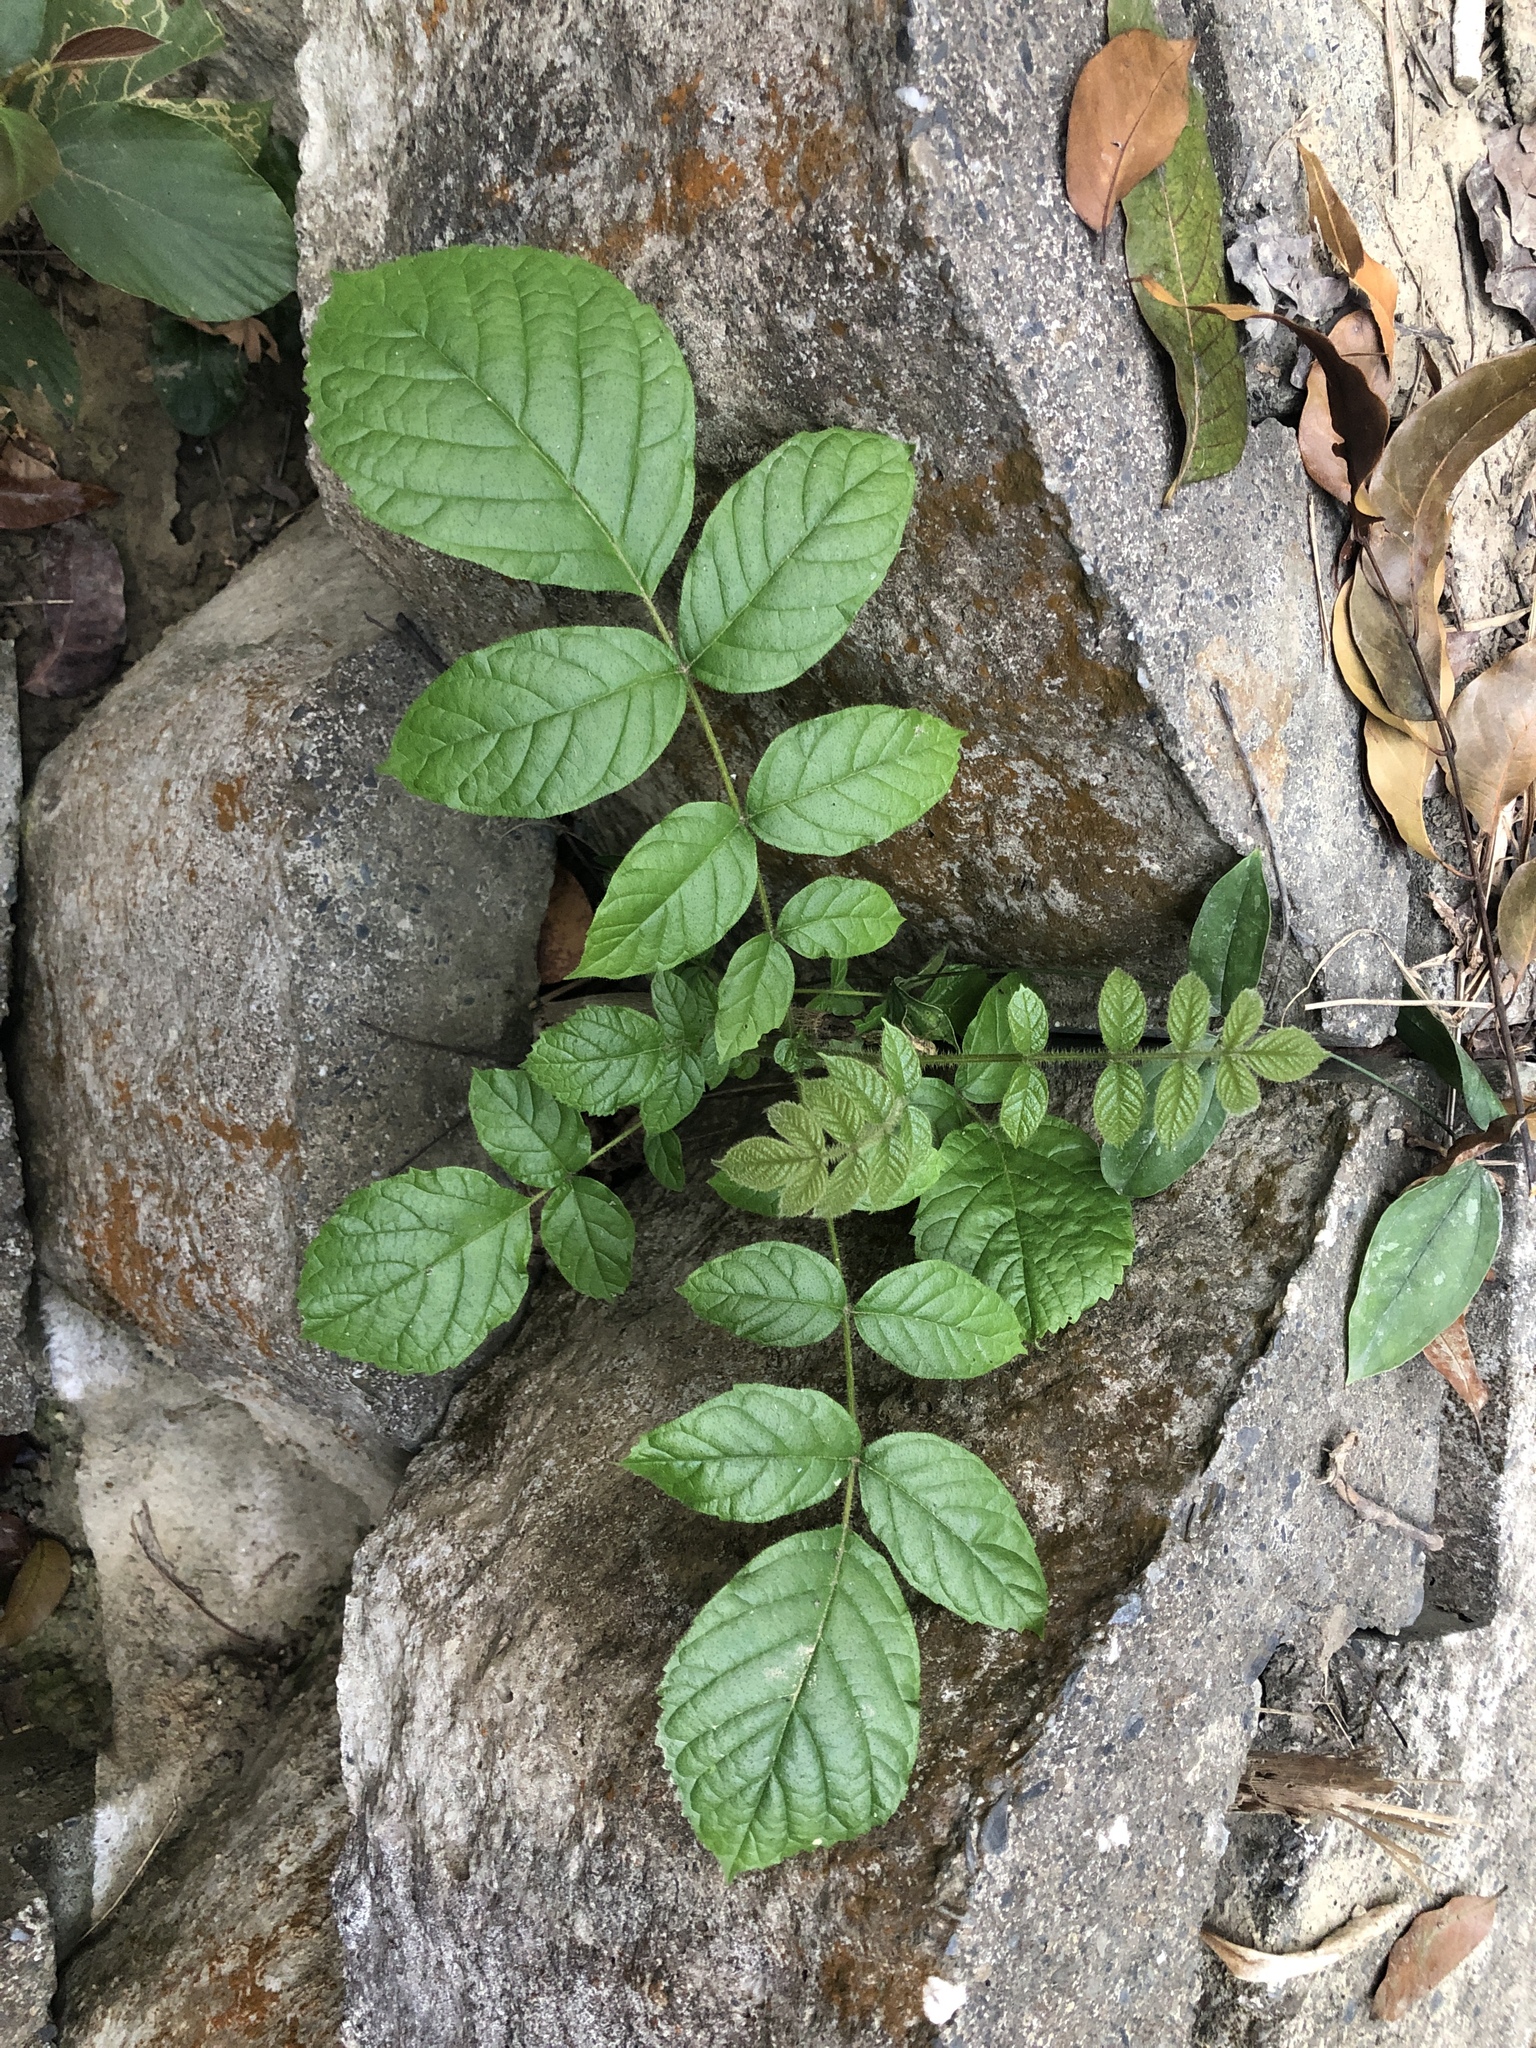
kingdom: Plantae
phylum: Tracheophyta
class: Magnoliopsida
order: Lamiales
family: Bignoniaceae
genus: Spathodea
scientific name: Spathodea campanulata
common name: African tuliptree
